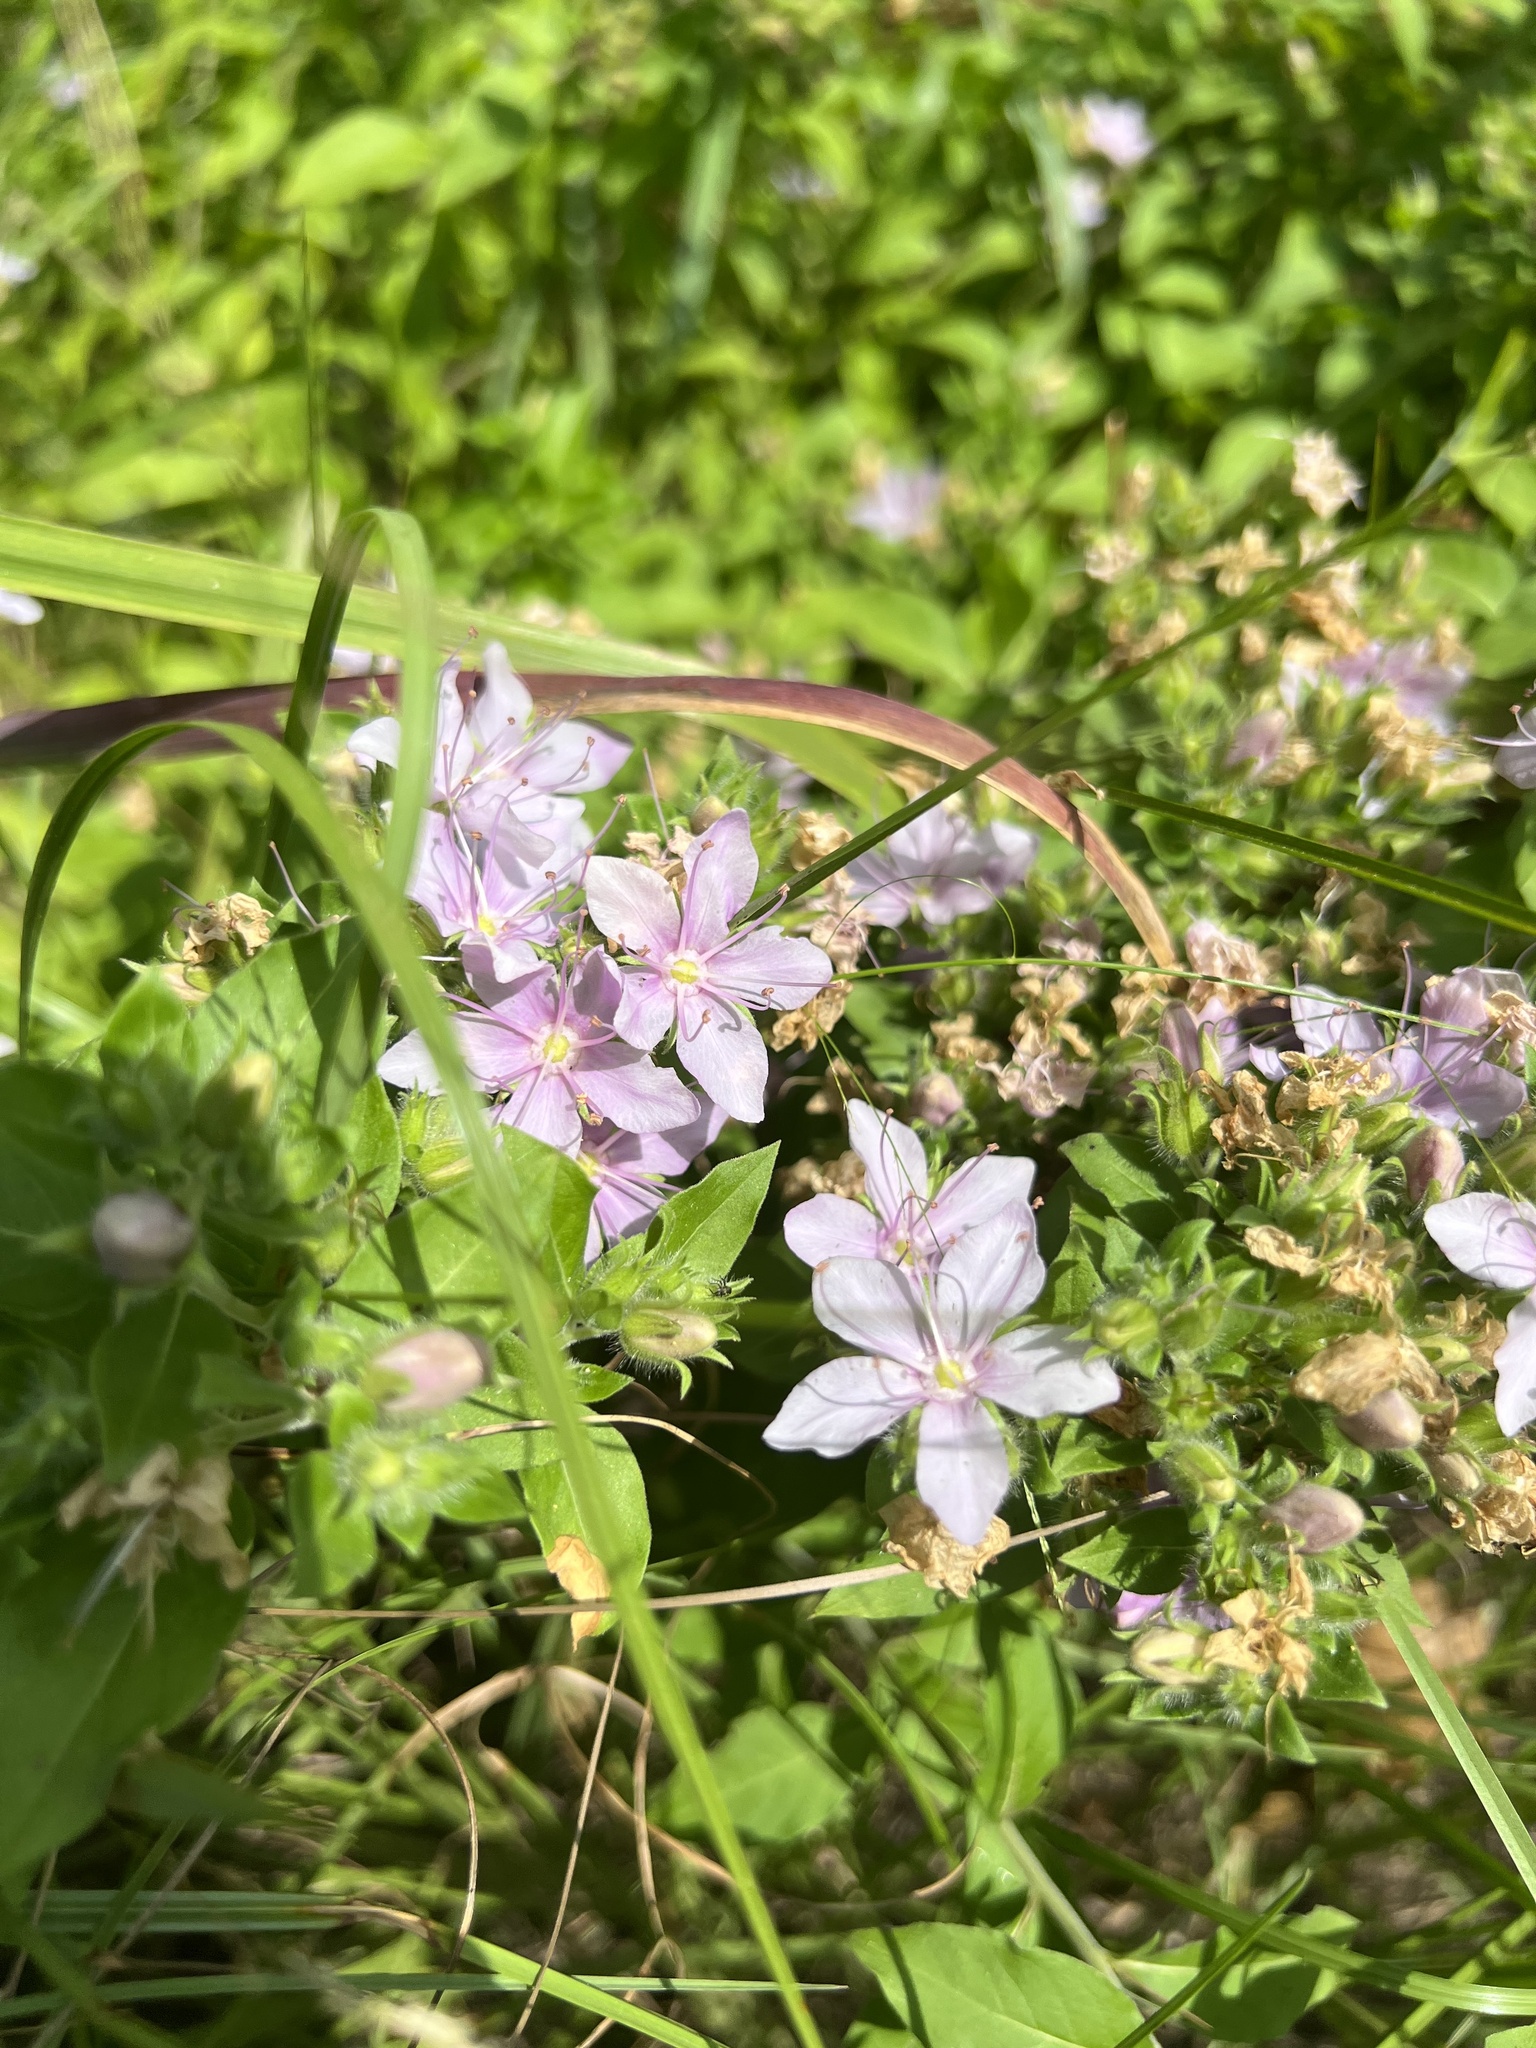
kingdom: Plantae
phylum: Tracheophyta
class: Magnoliopsida
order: Solanales
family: Hydroleaceae
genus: Hydrolea
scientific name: Hydrolea ovata
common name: Ovate false fiddleleaf
